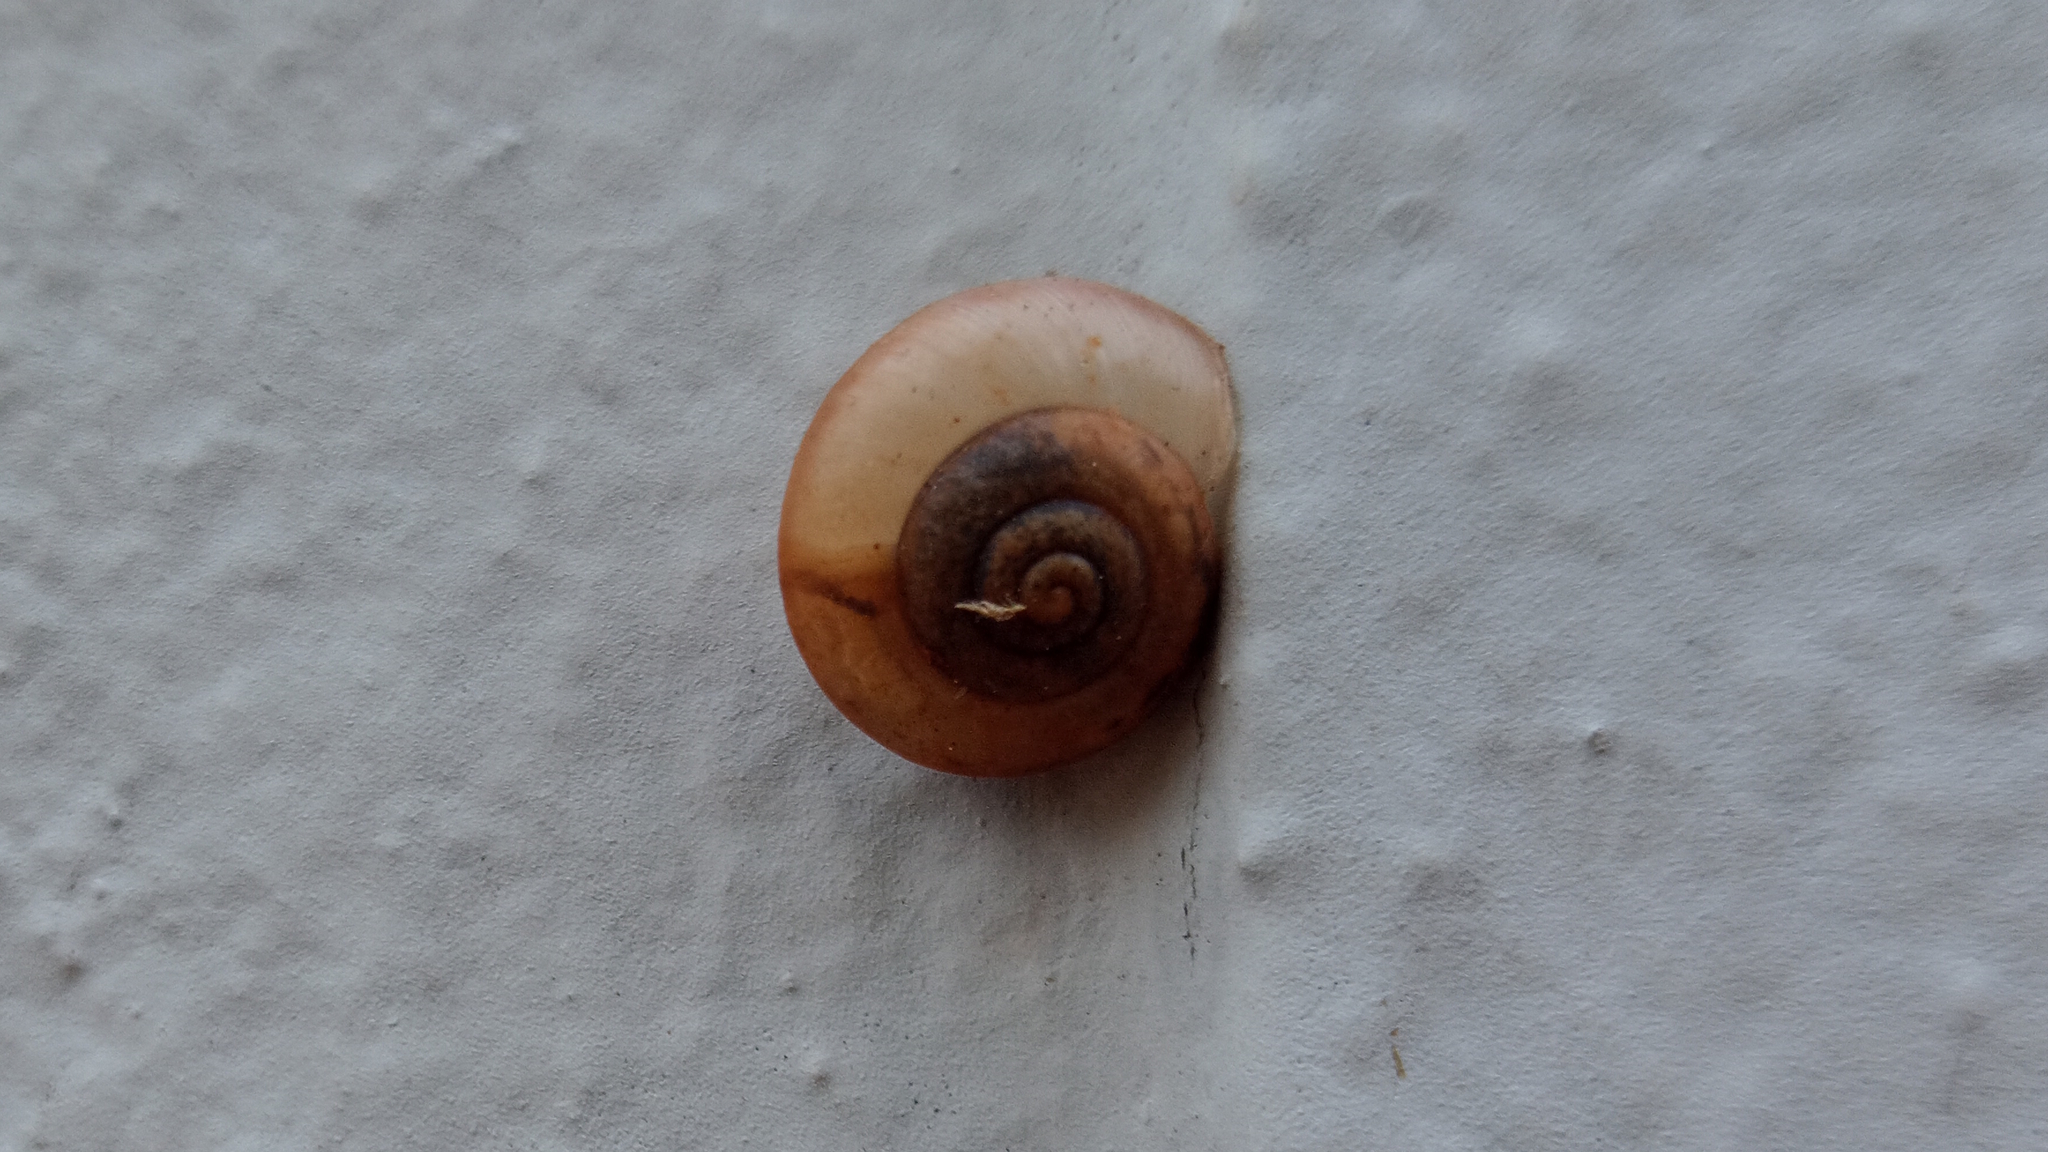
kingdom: Animalia
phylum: Mollusca
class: Gastropoda
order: Stylommatophora
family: Camaenidae
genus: Bradybaena
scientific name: Bradybaena similaris
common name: Asian trampsnail
